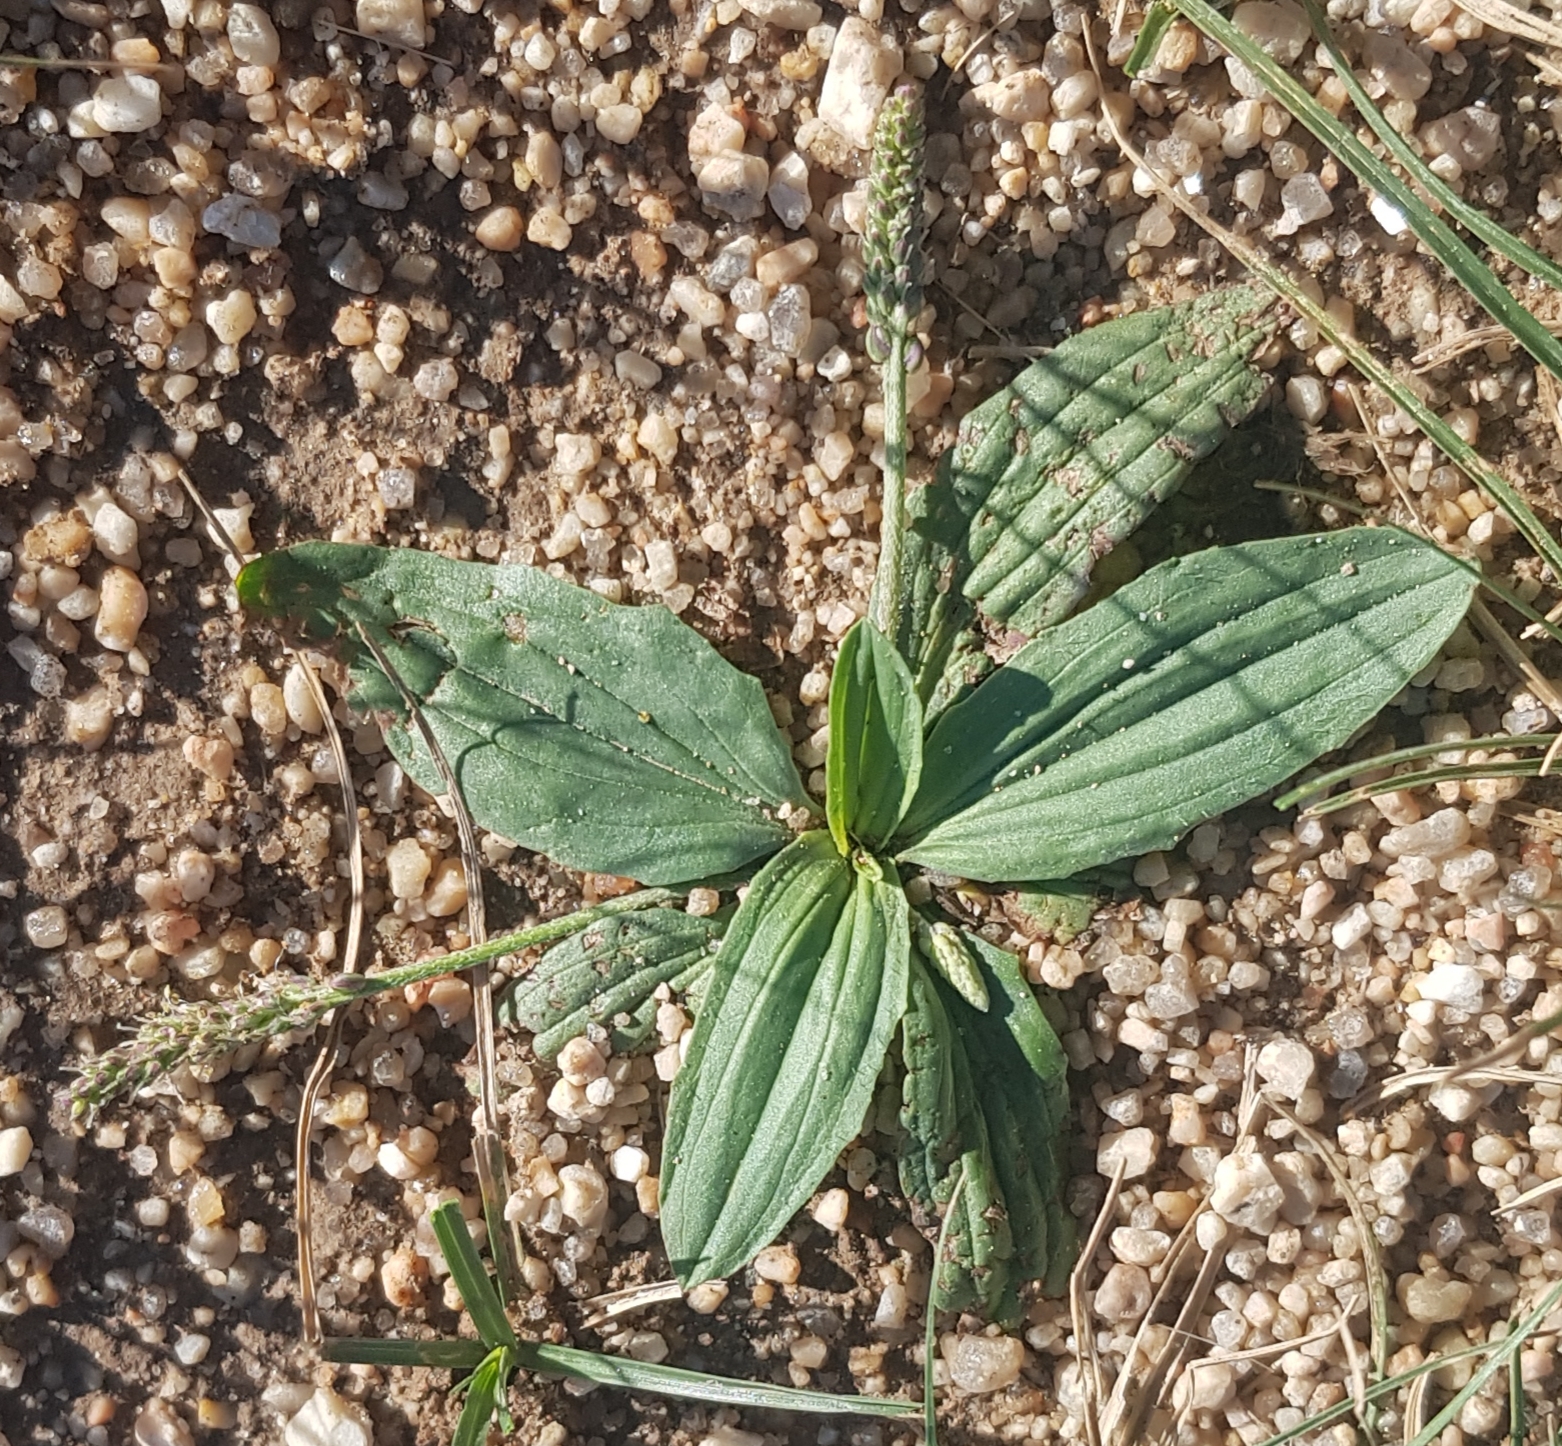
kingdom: Plantae
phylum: Tracheophyta
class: Magnoliopsida
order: Lamiales
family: Plantaginaceae
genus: Plantago
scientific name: Plantago depressa
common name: Depressed plantain
